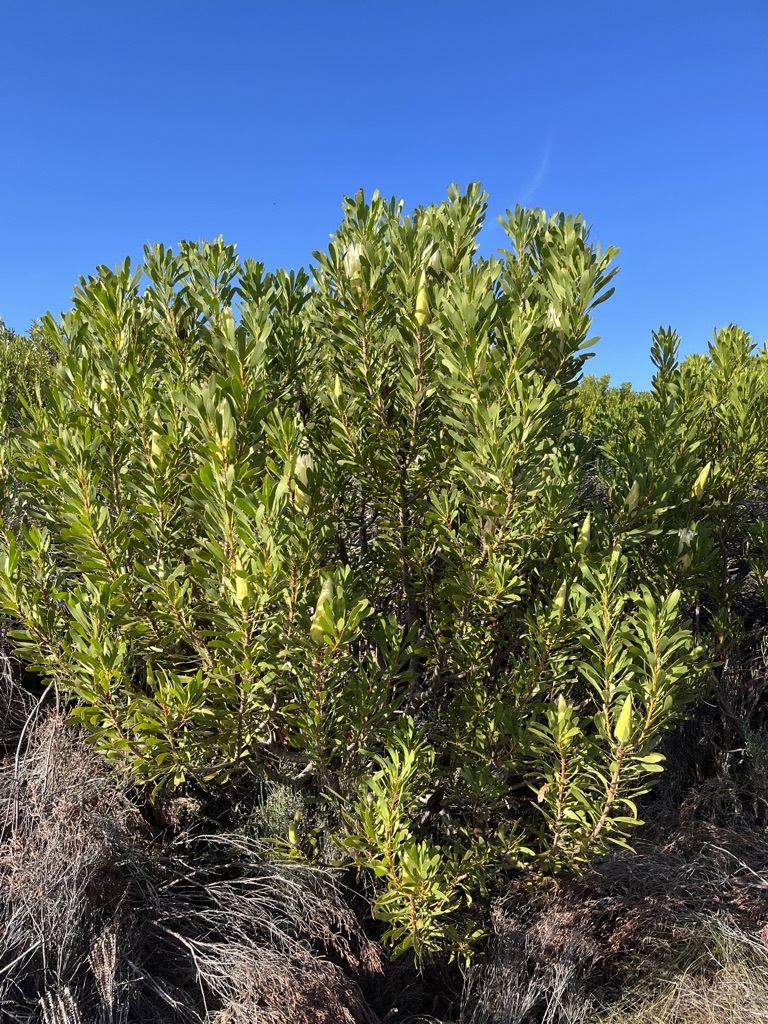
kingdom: Plantae
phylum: Tracheophyta
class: Magnoliopsida
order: Proteales
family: Proteaceae
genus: Protea
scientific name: Protea repens
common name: Sugarbush
